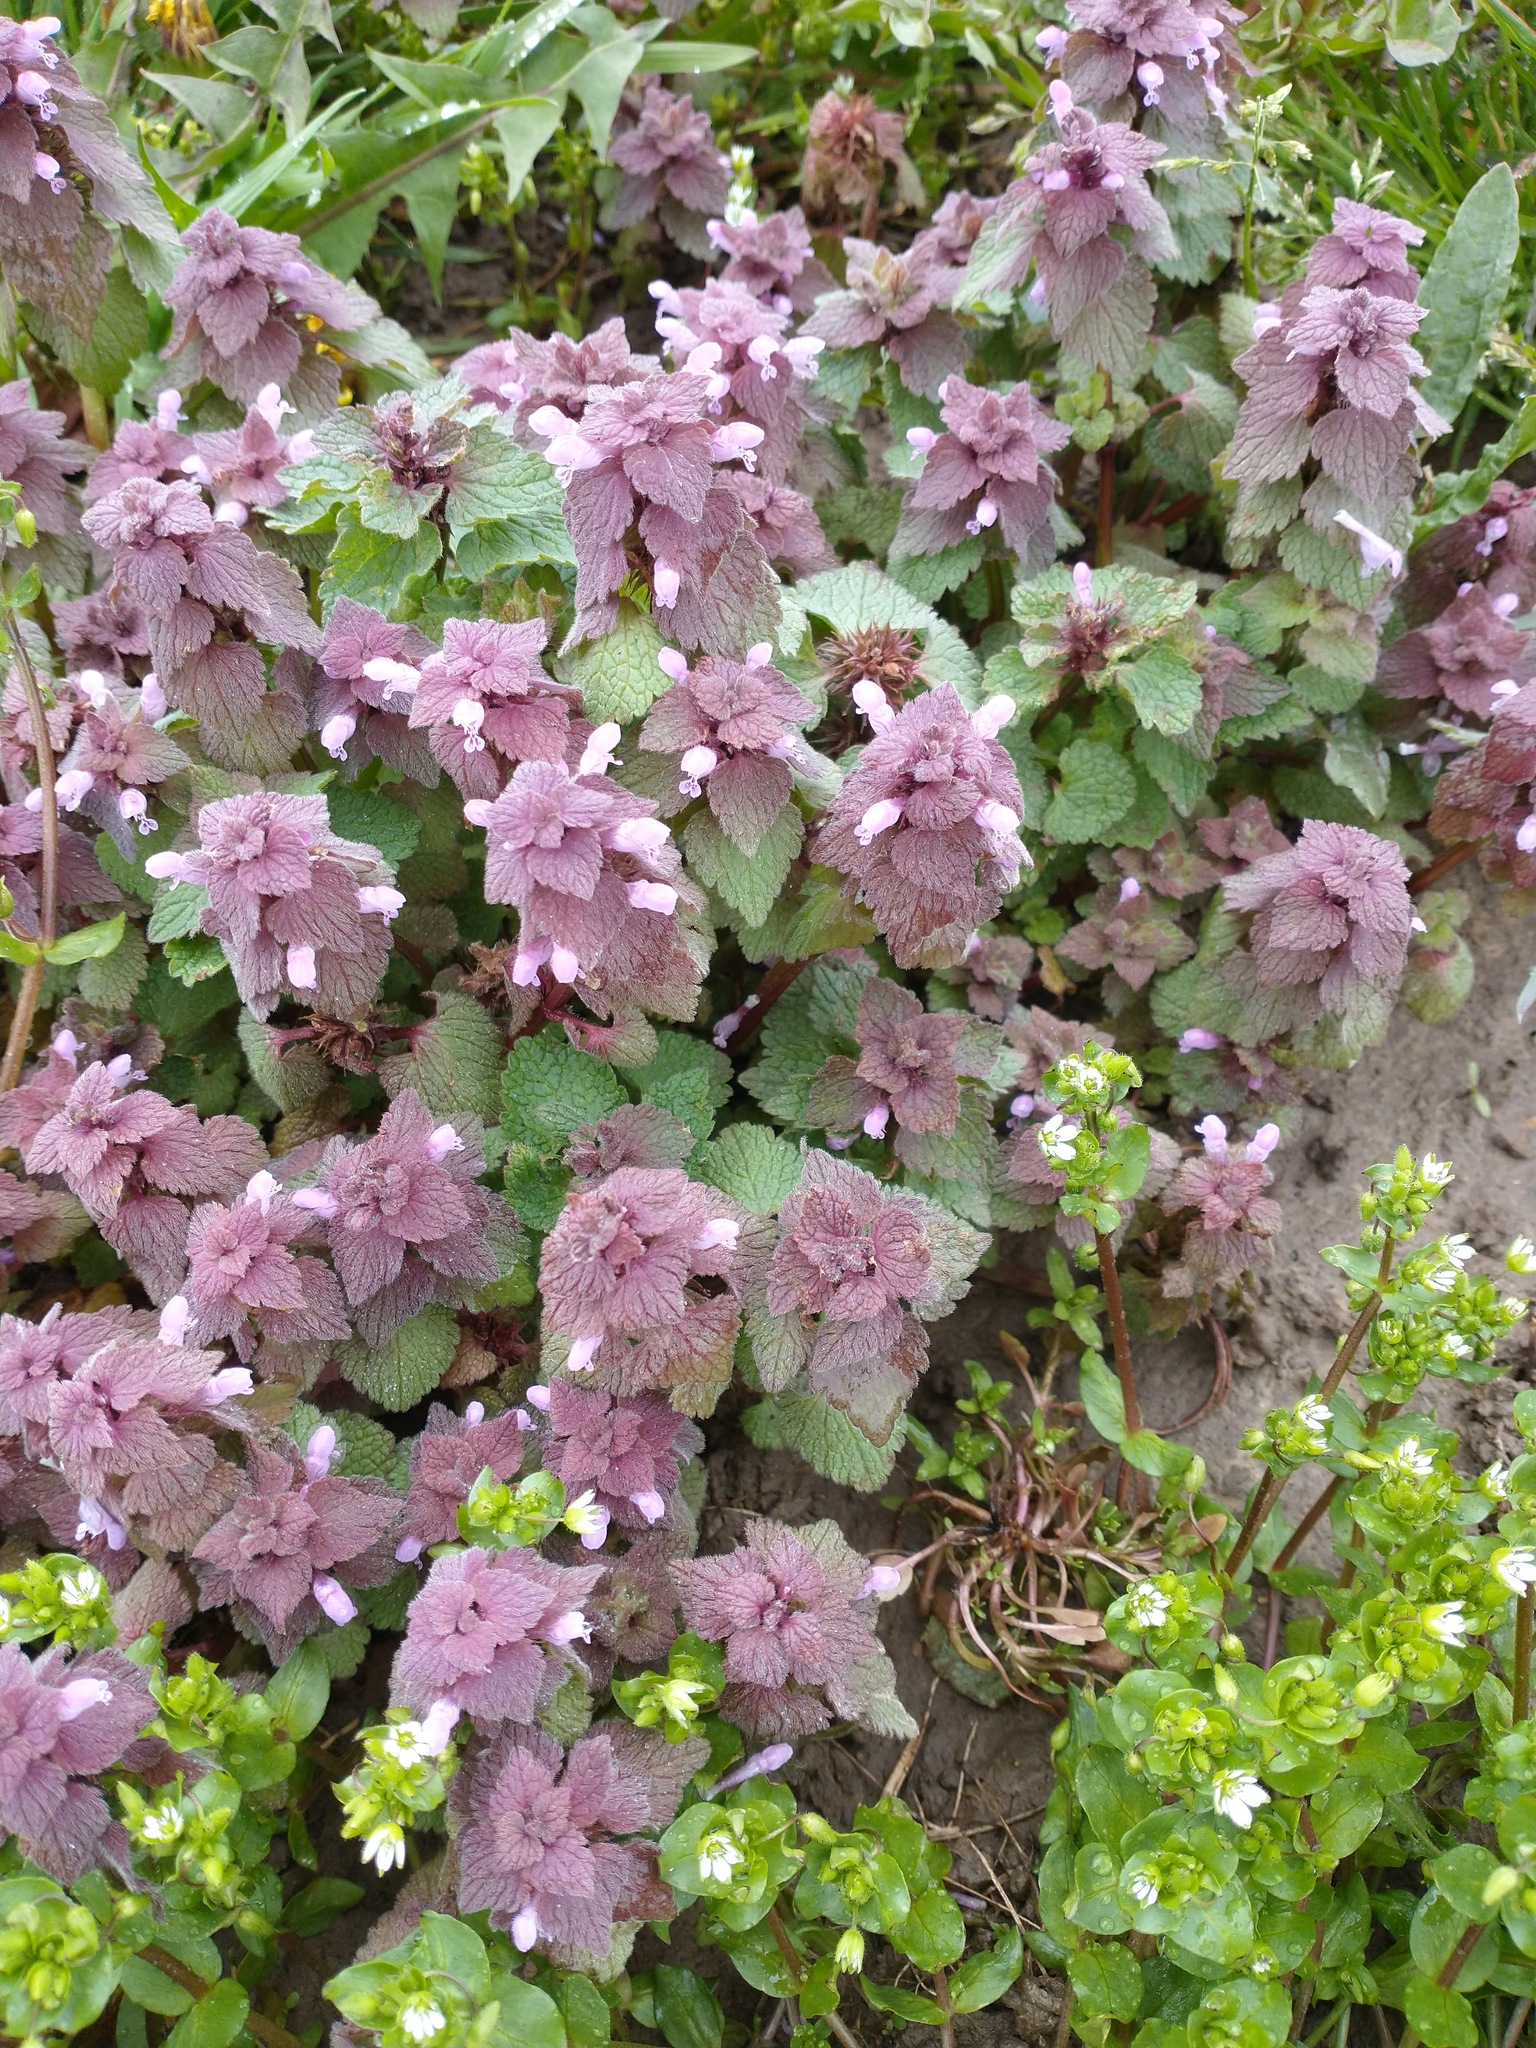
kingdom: Plantae
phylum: Tracheophyta
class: Magnoliopsida
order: Lamiales
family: Lamiaceae
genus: Lamium
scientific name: Lamium purpureum
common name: Red dead-nettle
